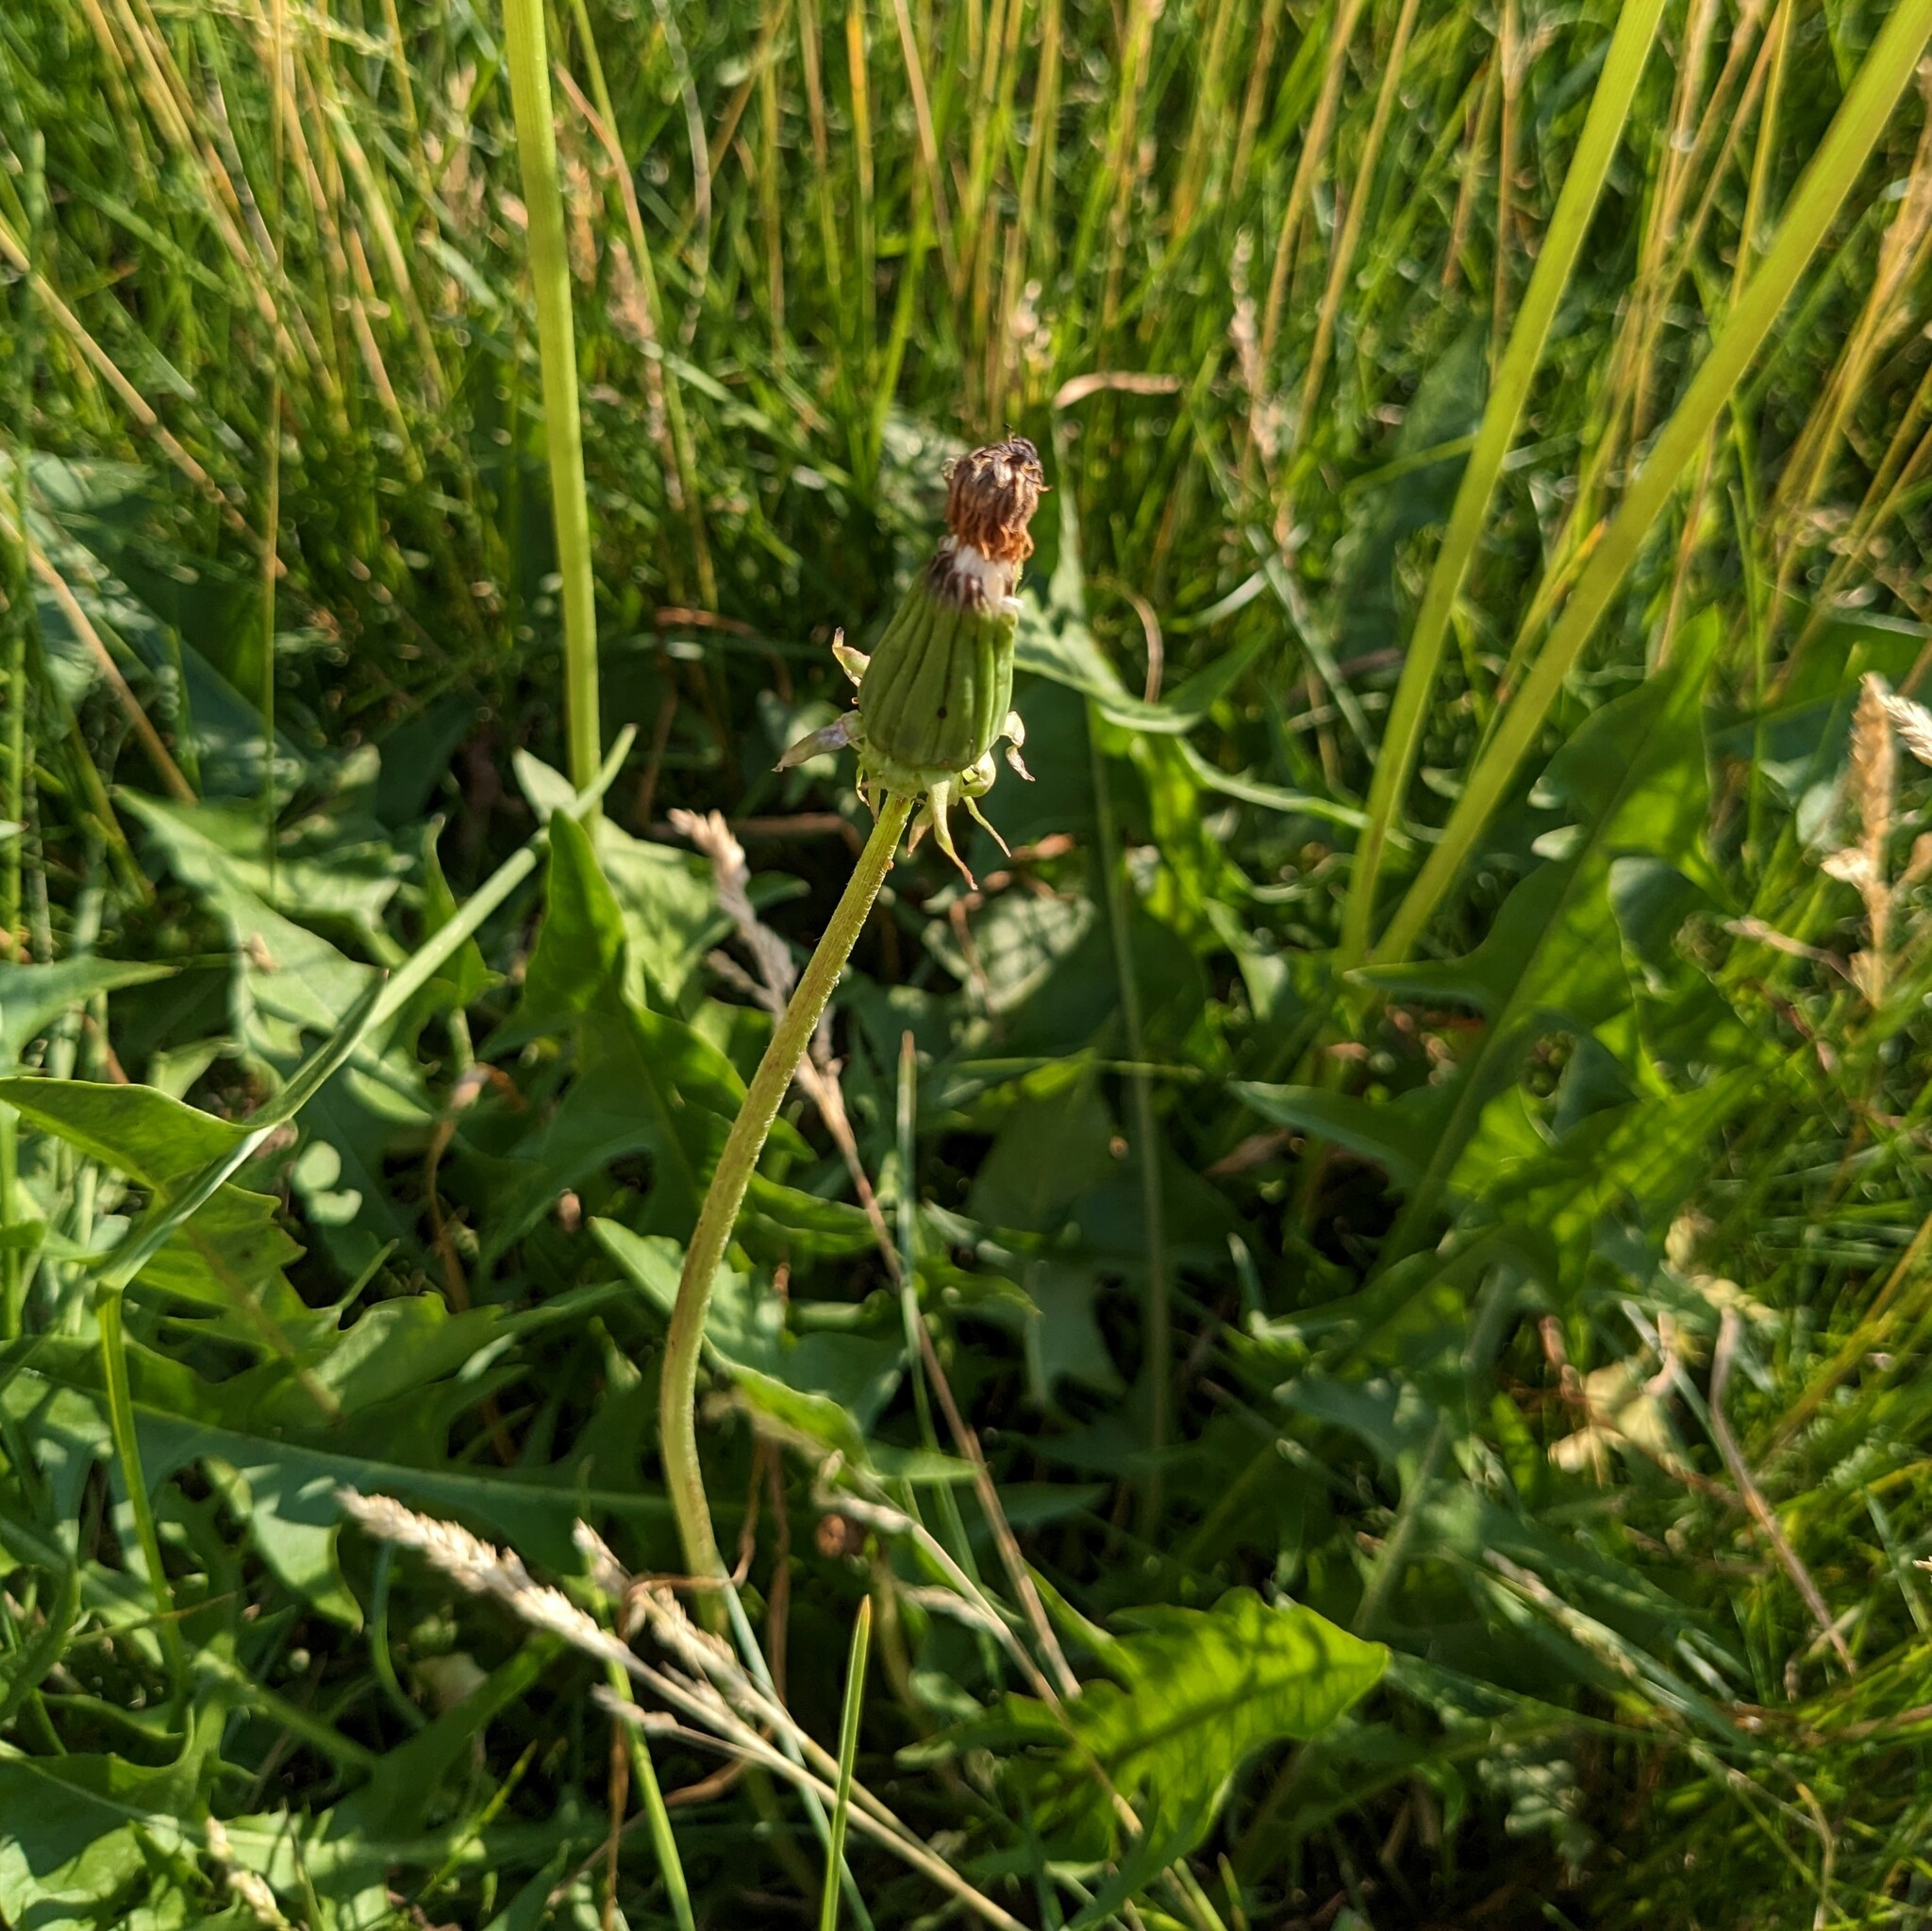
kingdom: Plantae
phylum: Tracheophyta
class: Magnoliopsida
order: Asterales
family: Asteraceae
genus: Taraxacum
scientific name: Taraxacum officinale
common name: Common dandelion
